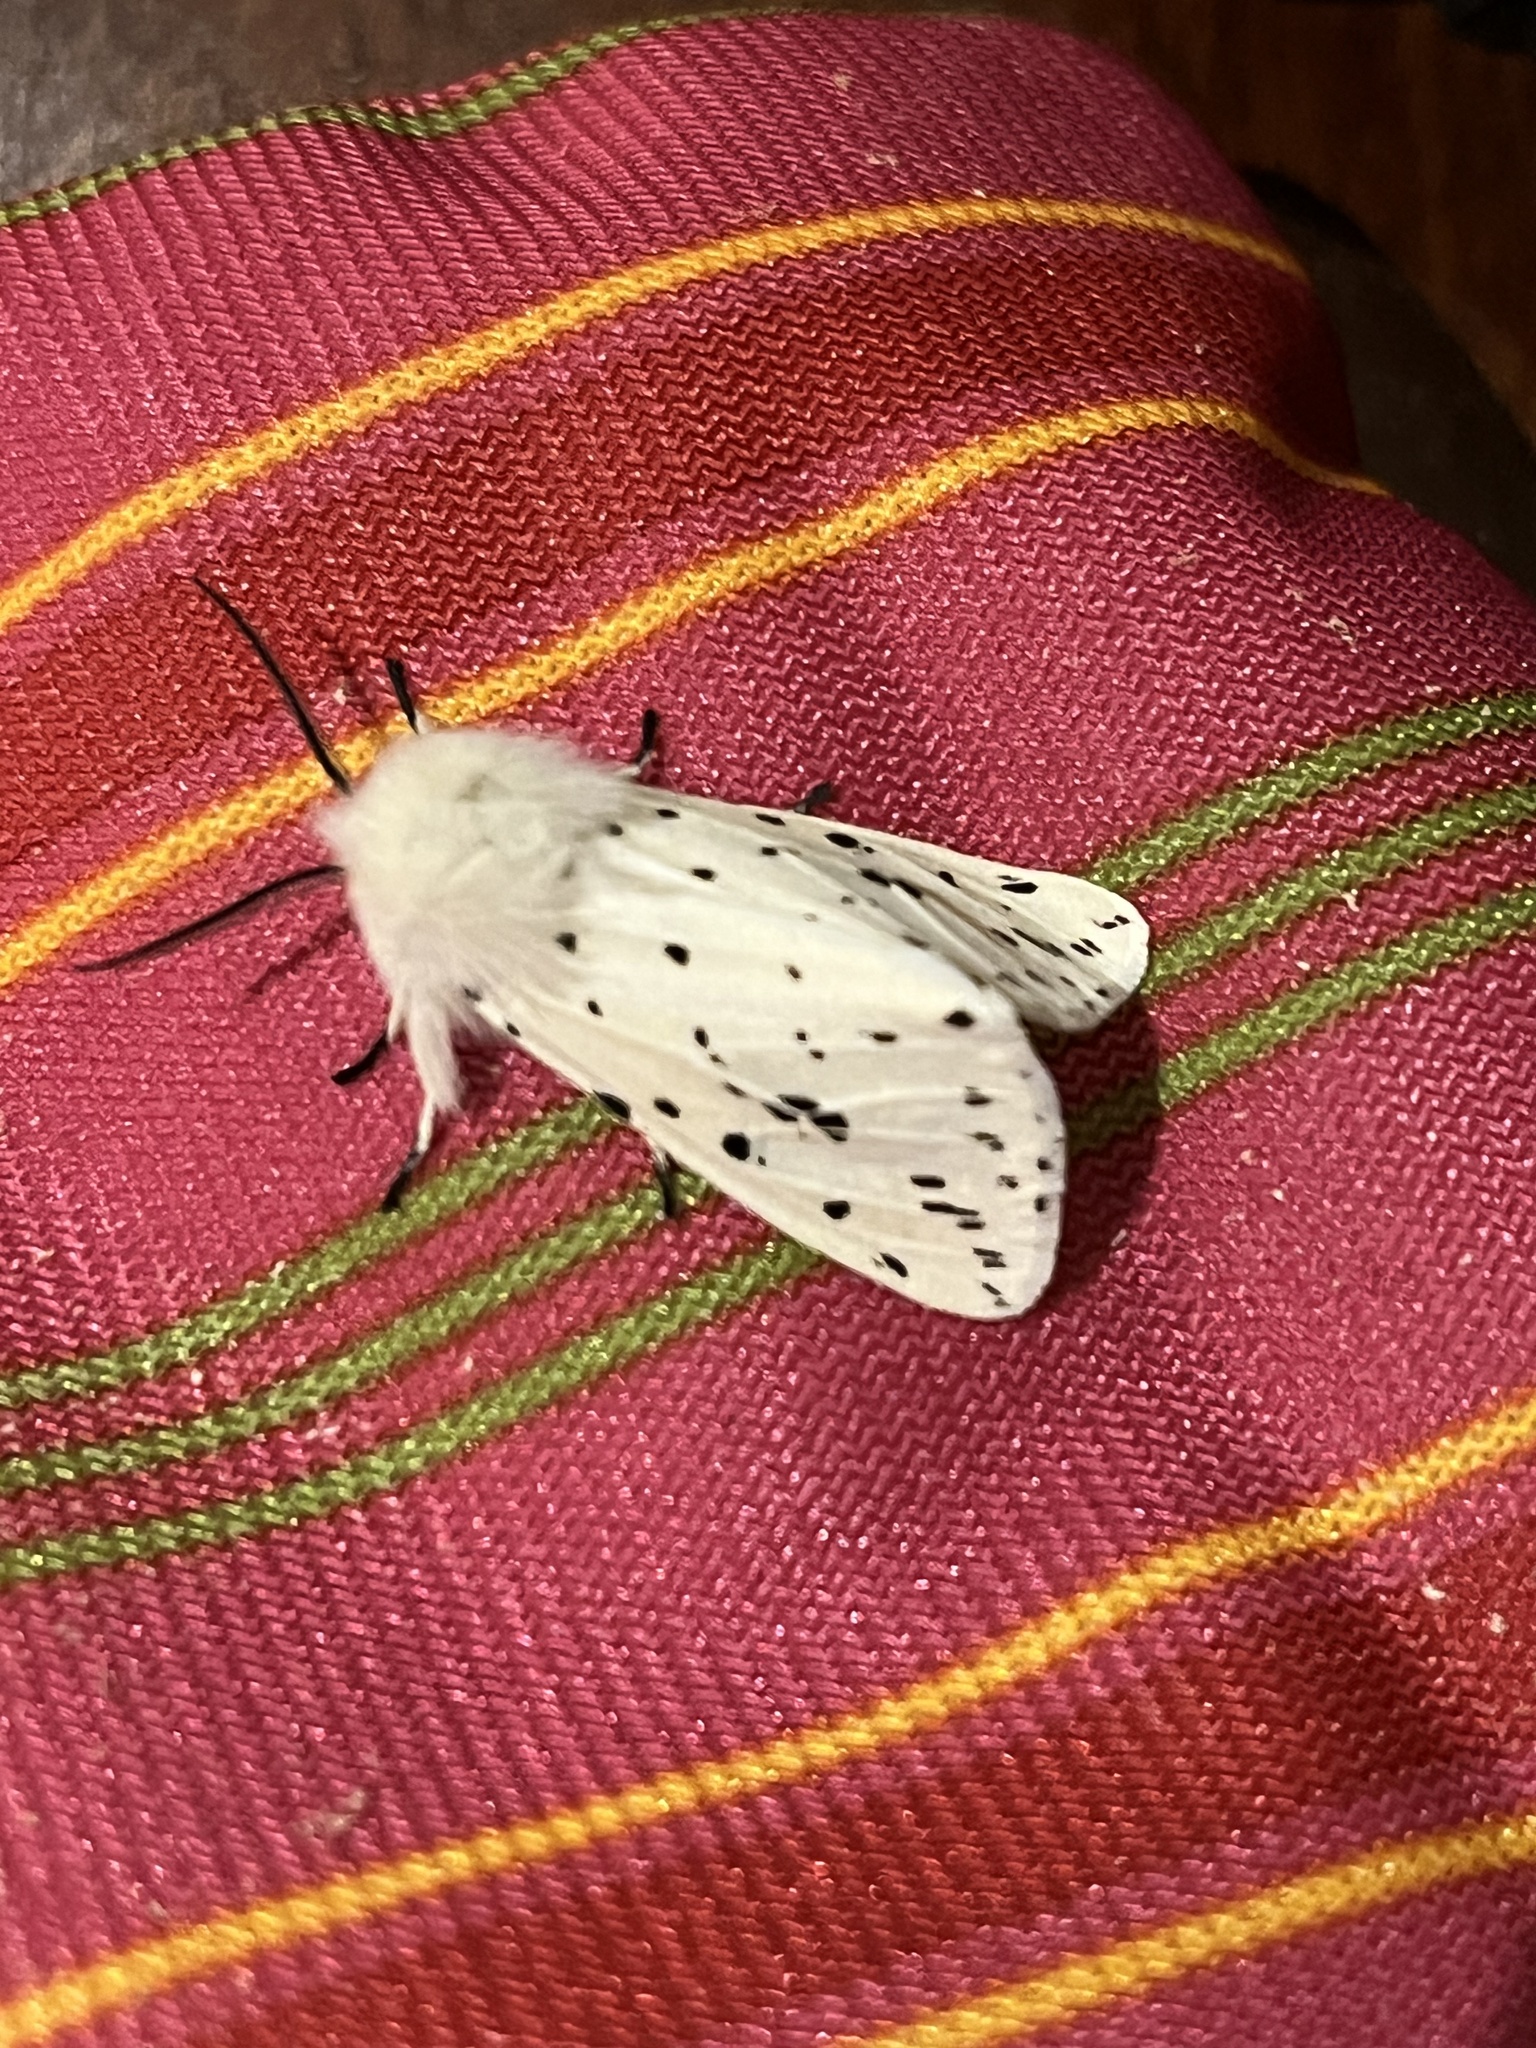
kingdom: Animalia
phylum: Arthropoda
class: Insecta
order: Lepidoptera
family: Erebidae
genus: Spilosoma
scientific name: Spilosoma lubricipeda
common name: White ermine
